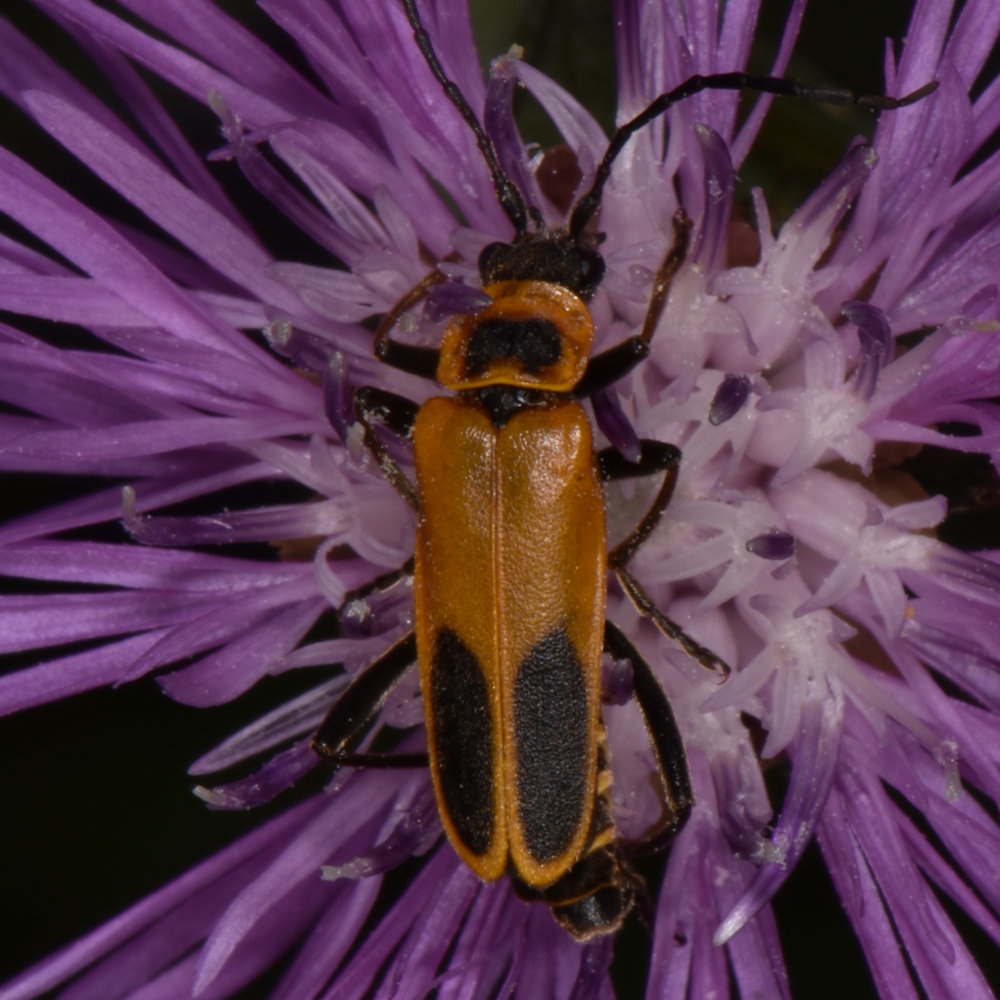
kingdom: Animalia
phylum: Arthropoda
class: Insecta
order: Coleoptera
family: Cantharidae
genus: Chauliognathus
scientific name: Chauliognathus pensylvanicus
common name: Goldenrod soldier beetle
